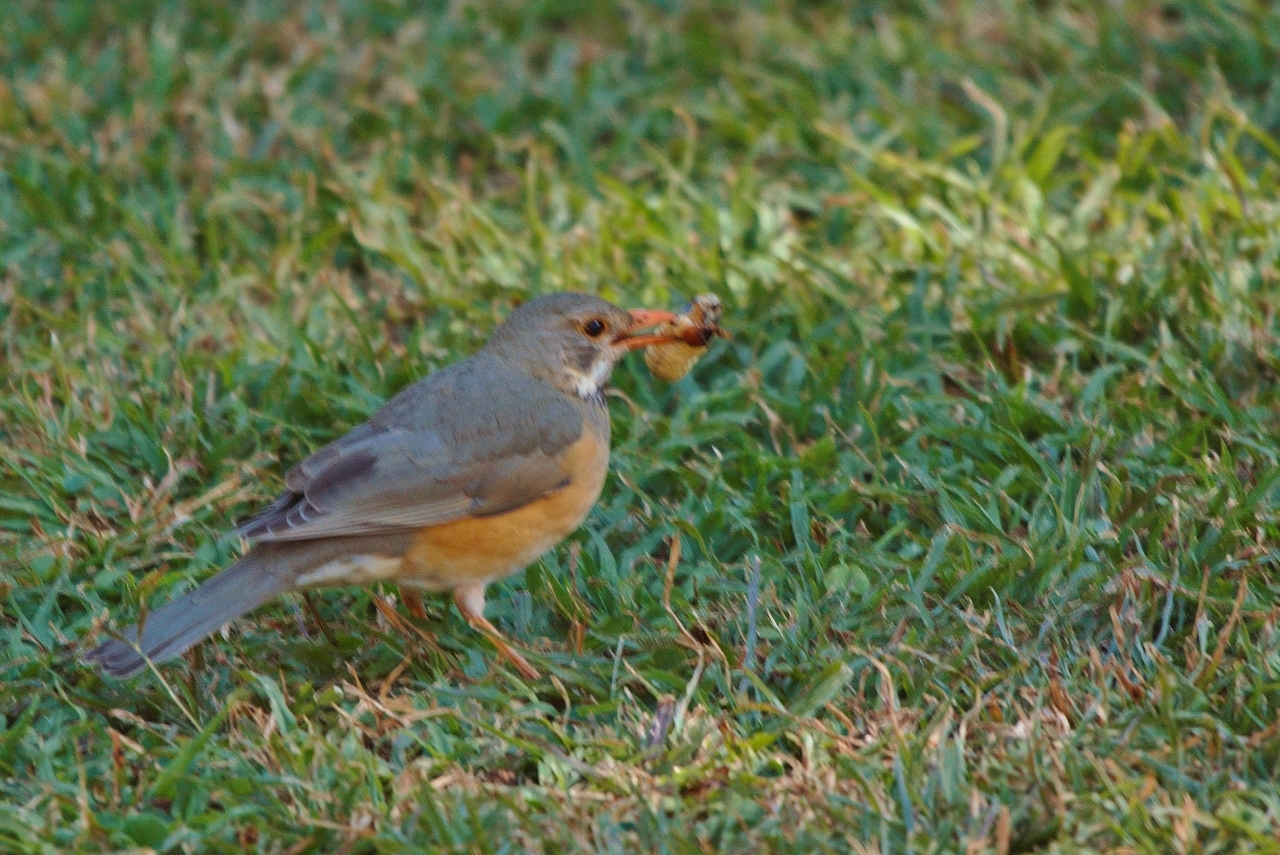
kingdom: Animalia
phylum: Chordata
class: Aves
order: Passeriformes
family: Turdidae
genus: Turdus
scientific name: Turdus libonyana
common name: Kurrichane thrush
